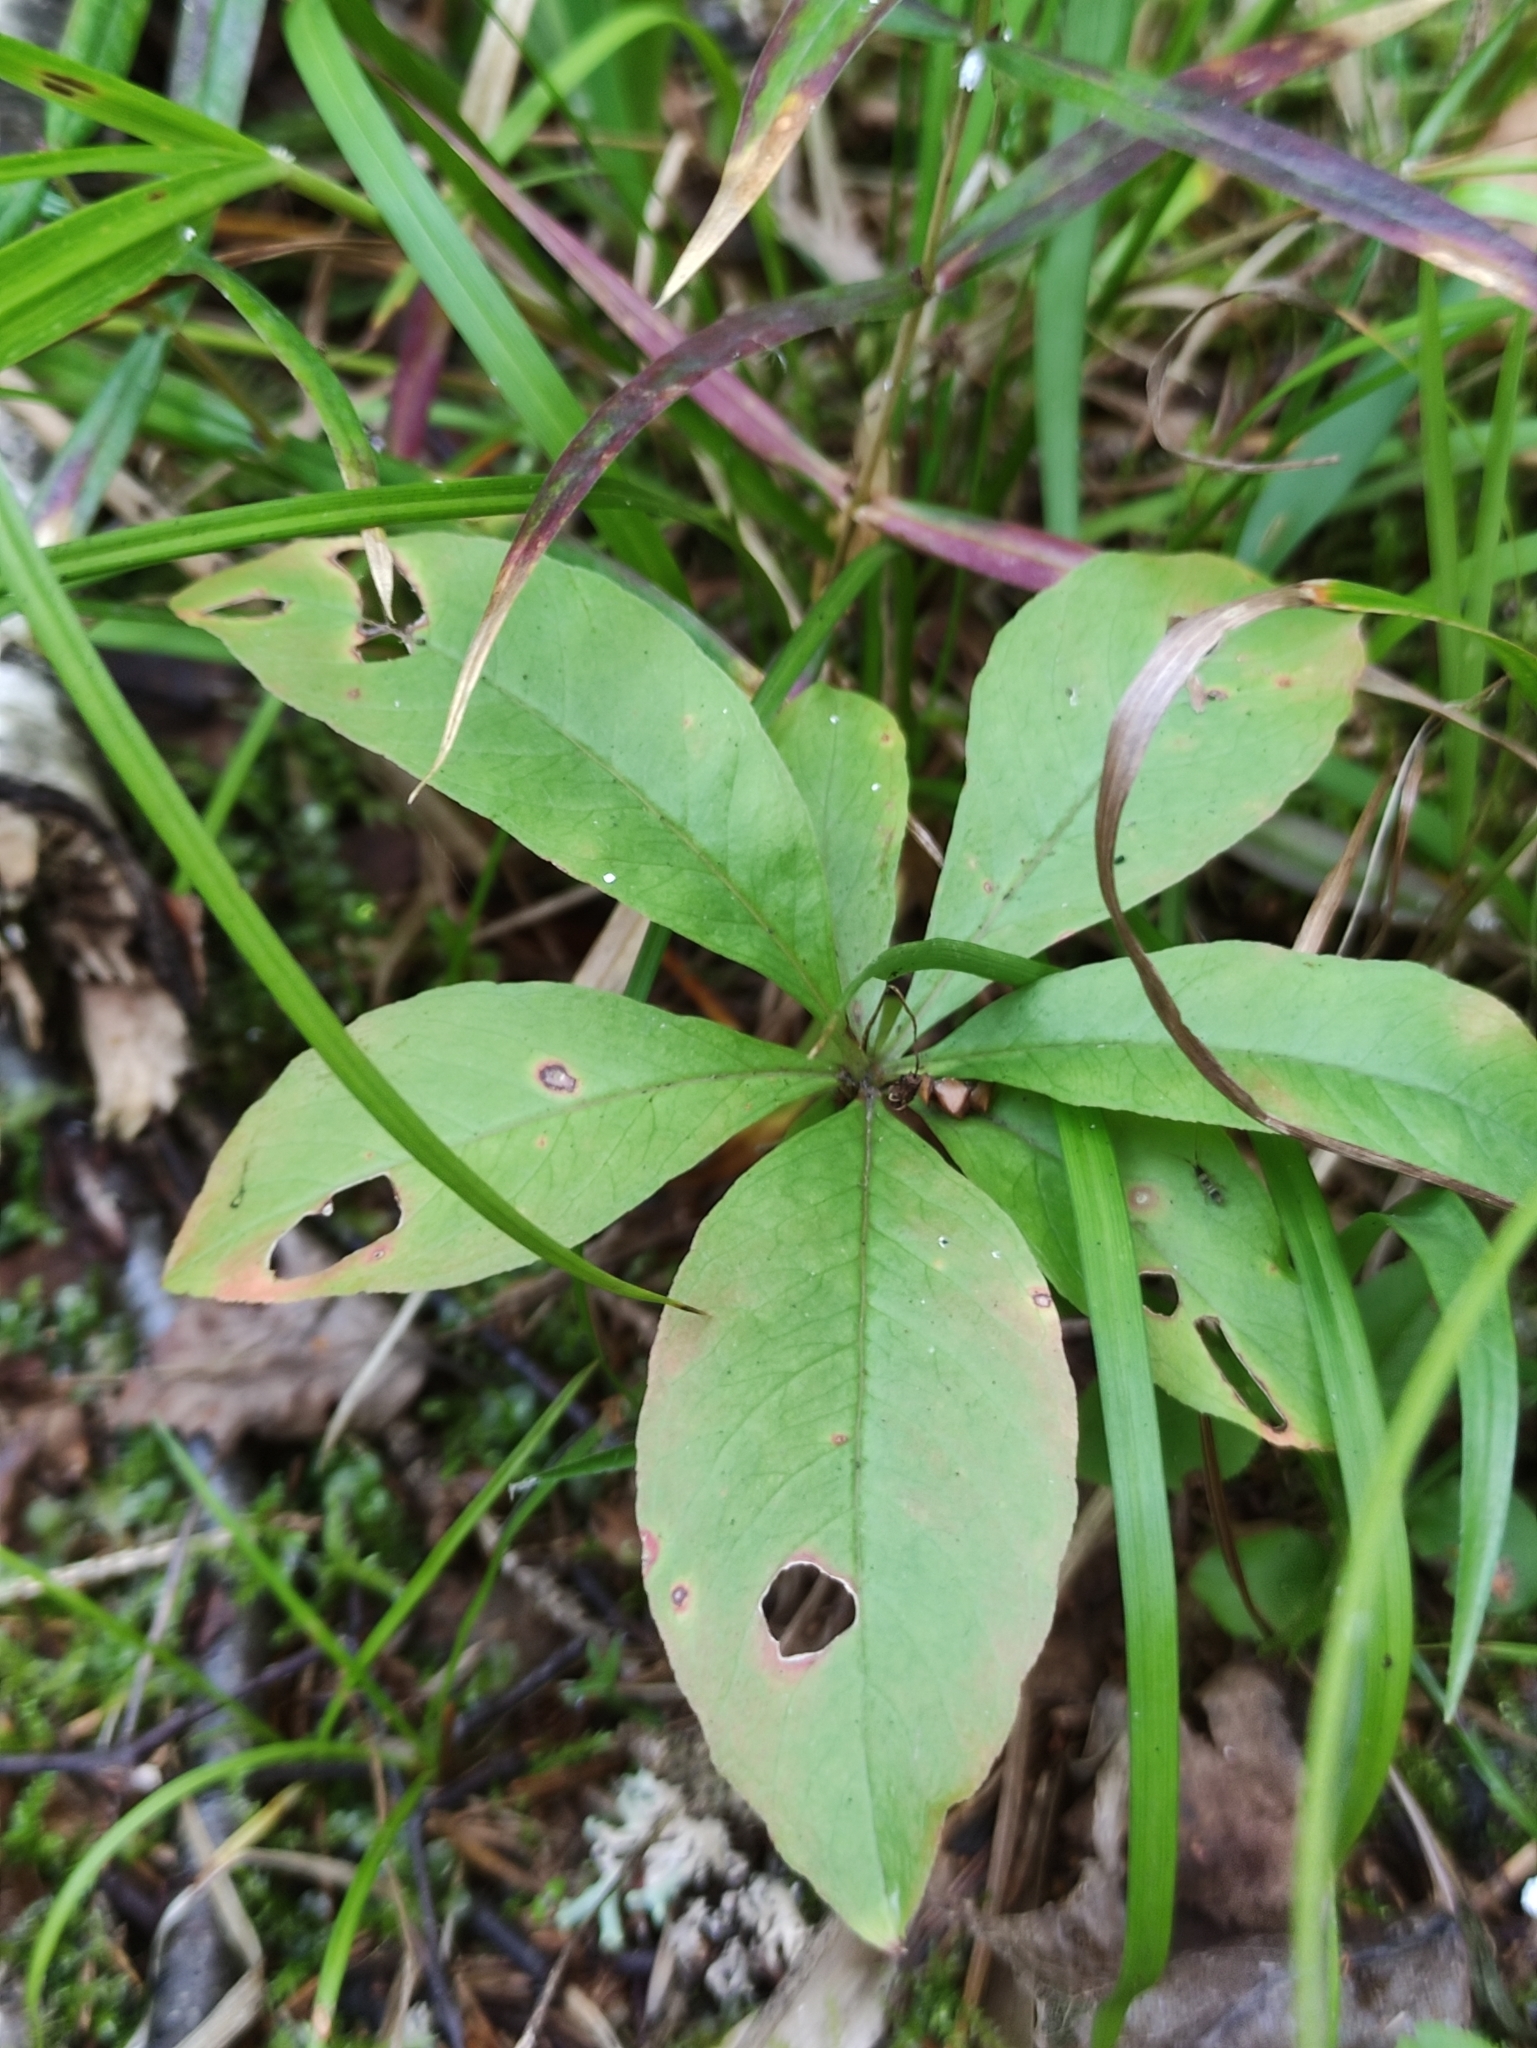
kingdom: Plantae
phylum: Tracheophyta
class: Magnoliopsida
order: Ericales
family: Primulaceae
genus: Lysimachia
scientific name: Lysimachia europaea
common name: Arctic starflower
